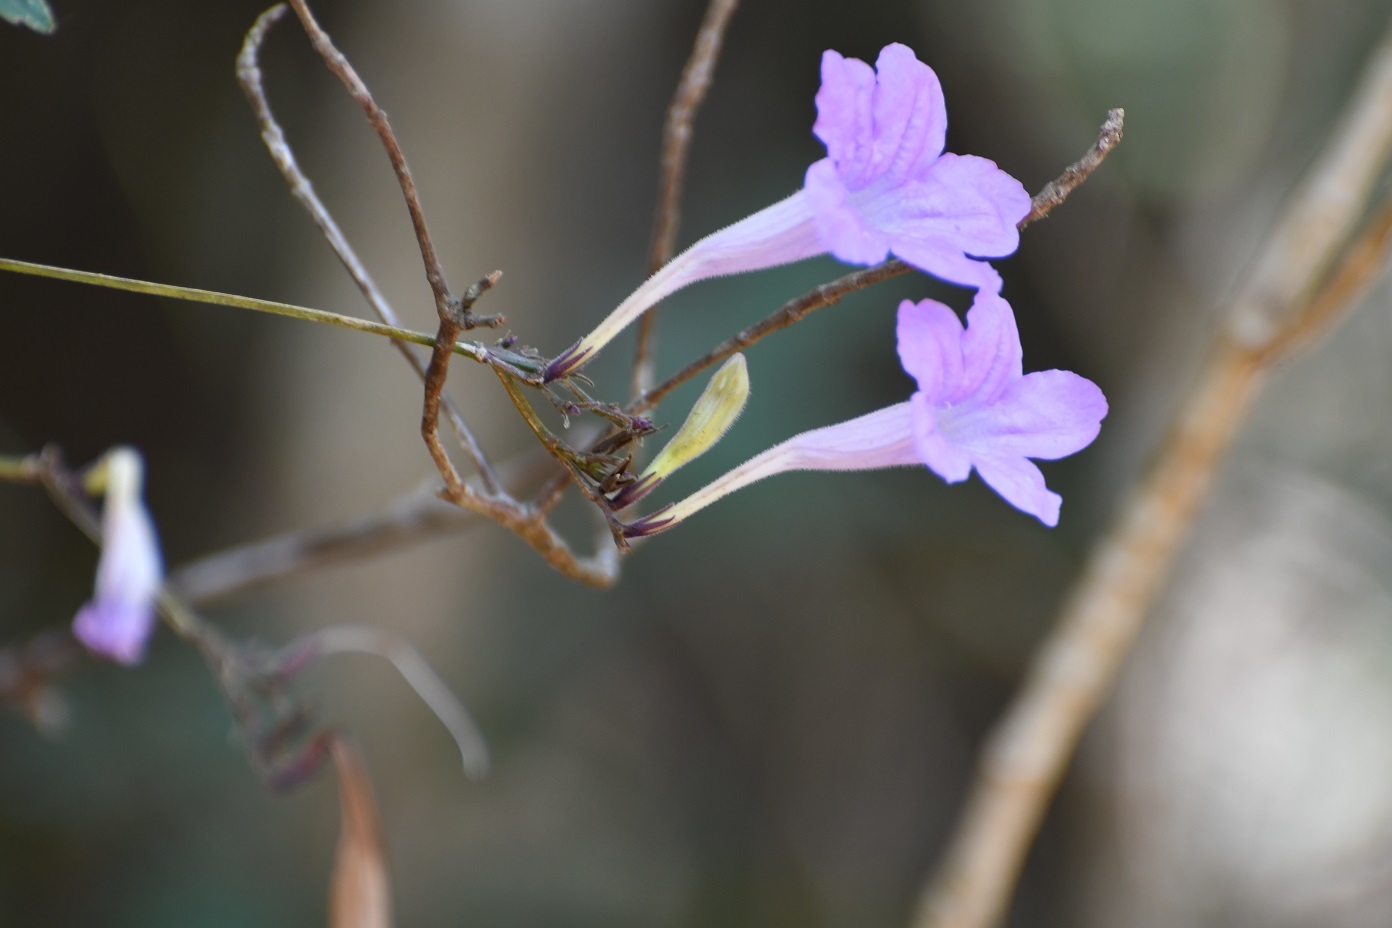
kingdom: Plantae
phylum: Tracheophyta
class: Magnoliopsida
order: Lamiales
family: Acanthaceae
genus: Ruellia
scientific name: Ruellia breedlovei
